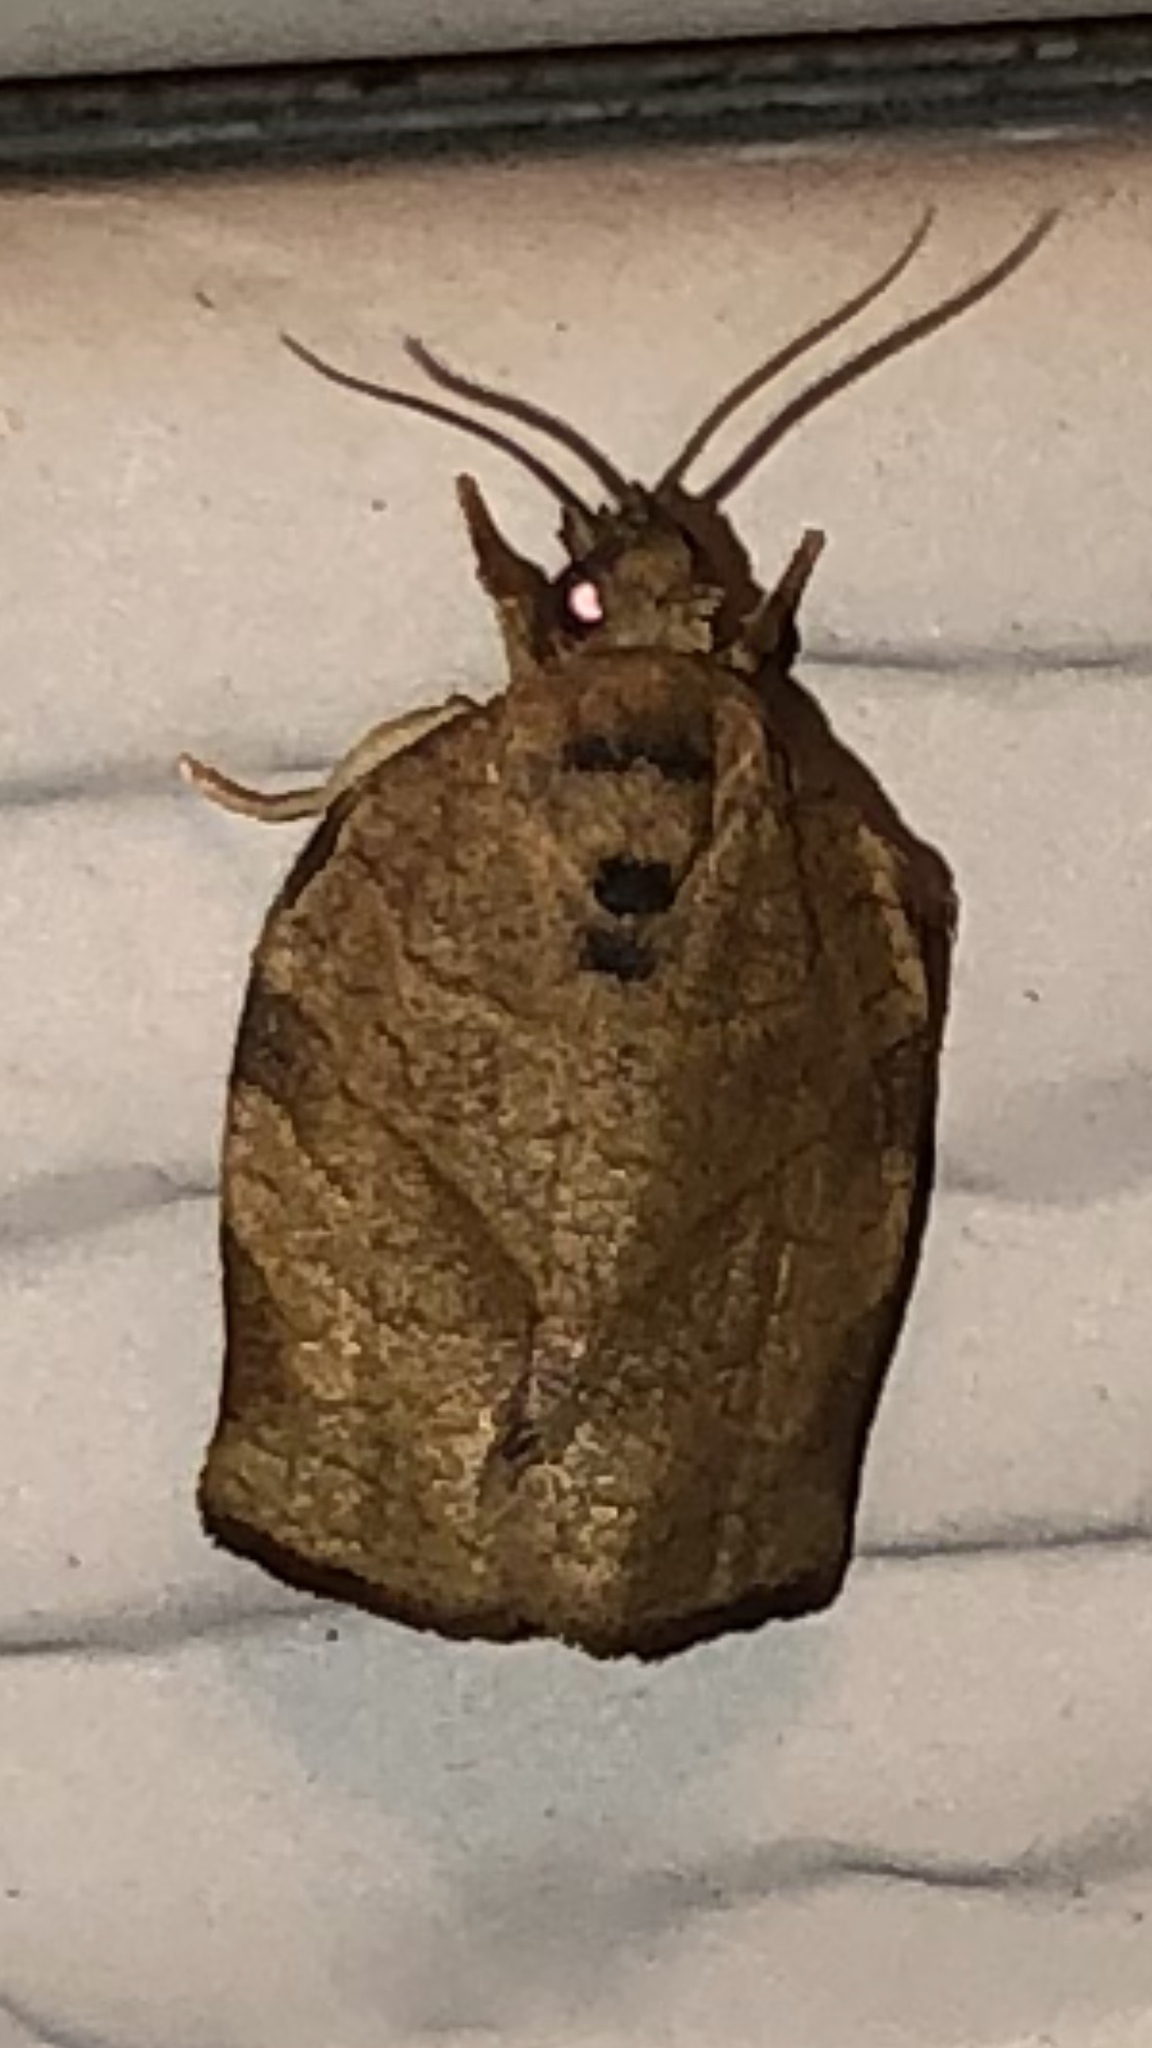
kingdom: Animalia
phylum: Arthropoda
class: Insecta
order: Lepidoptera
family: Tortricidae
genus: Choristoneura
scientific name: Choristoneura rosaceana
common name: Oblique-banded leafroller moth
